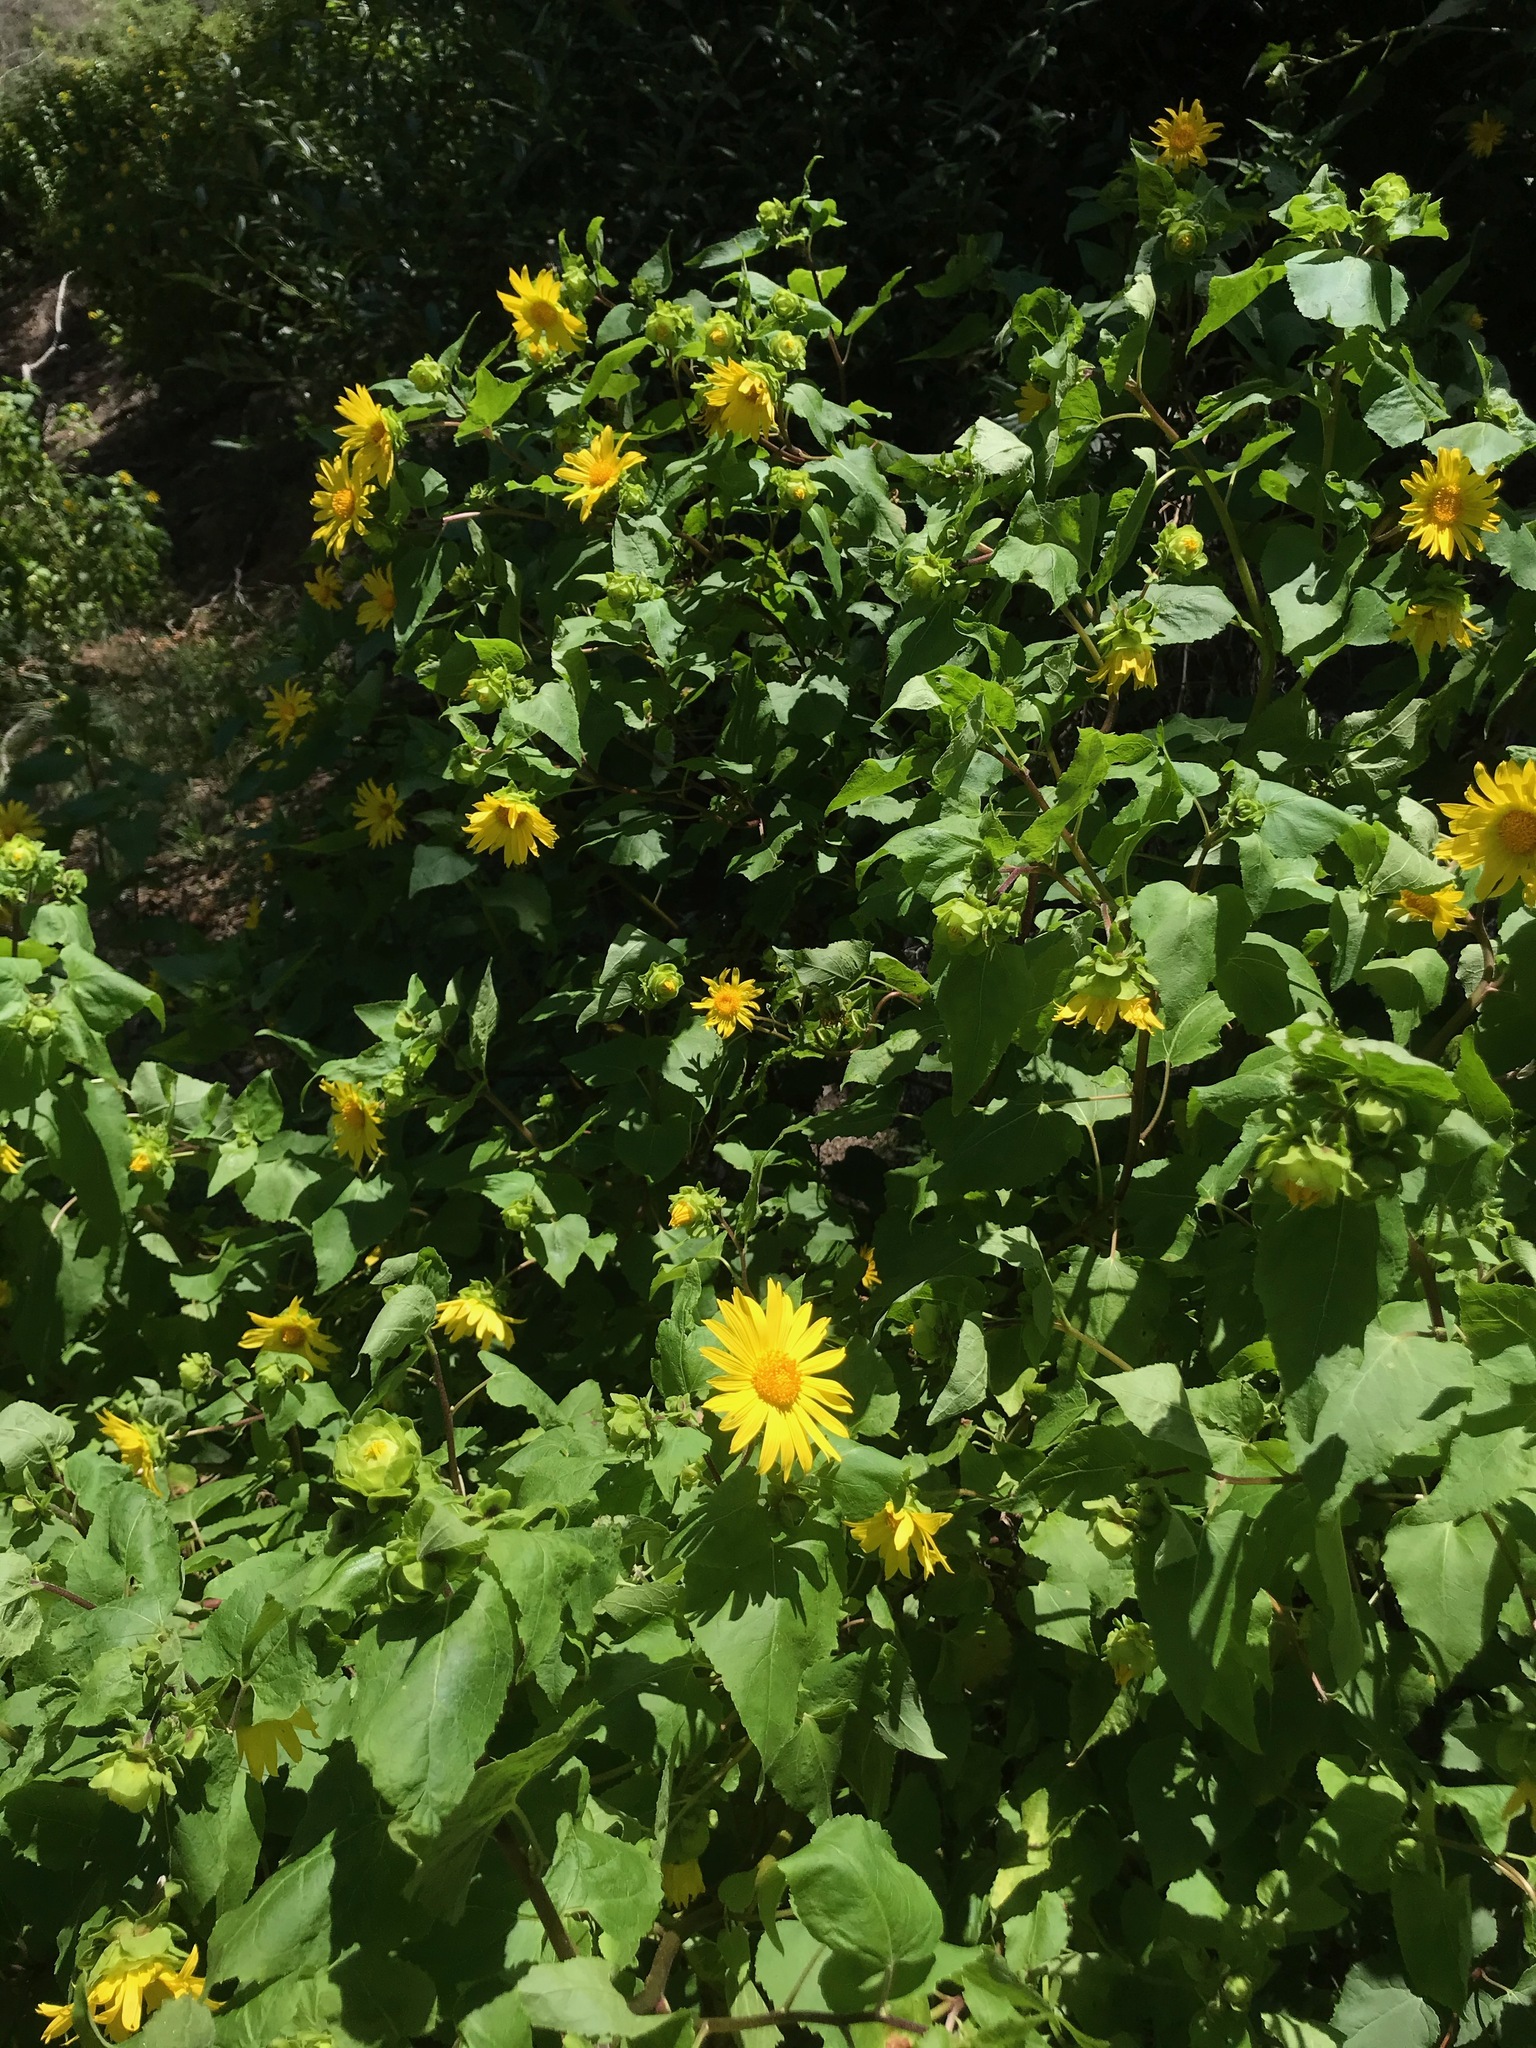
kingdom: Plantae
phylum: Tracheophyta
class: Magnoliopsida
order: Asterales
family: Asteraceae
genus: Venegasia
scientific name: Venegasia carpesioides
